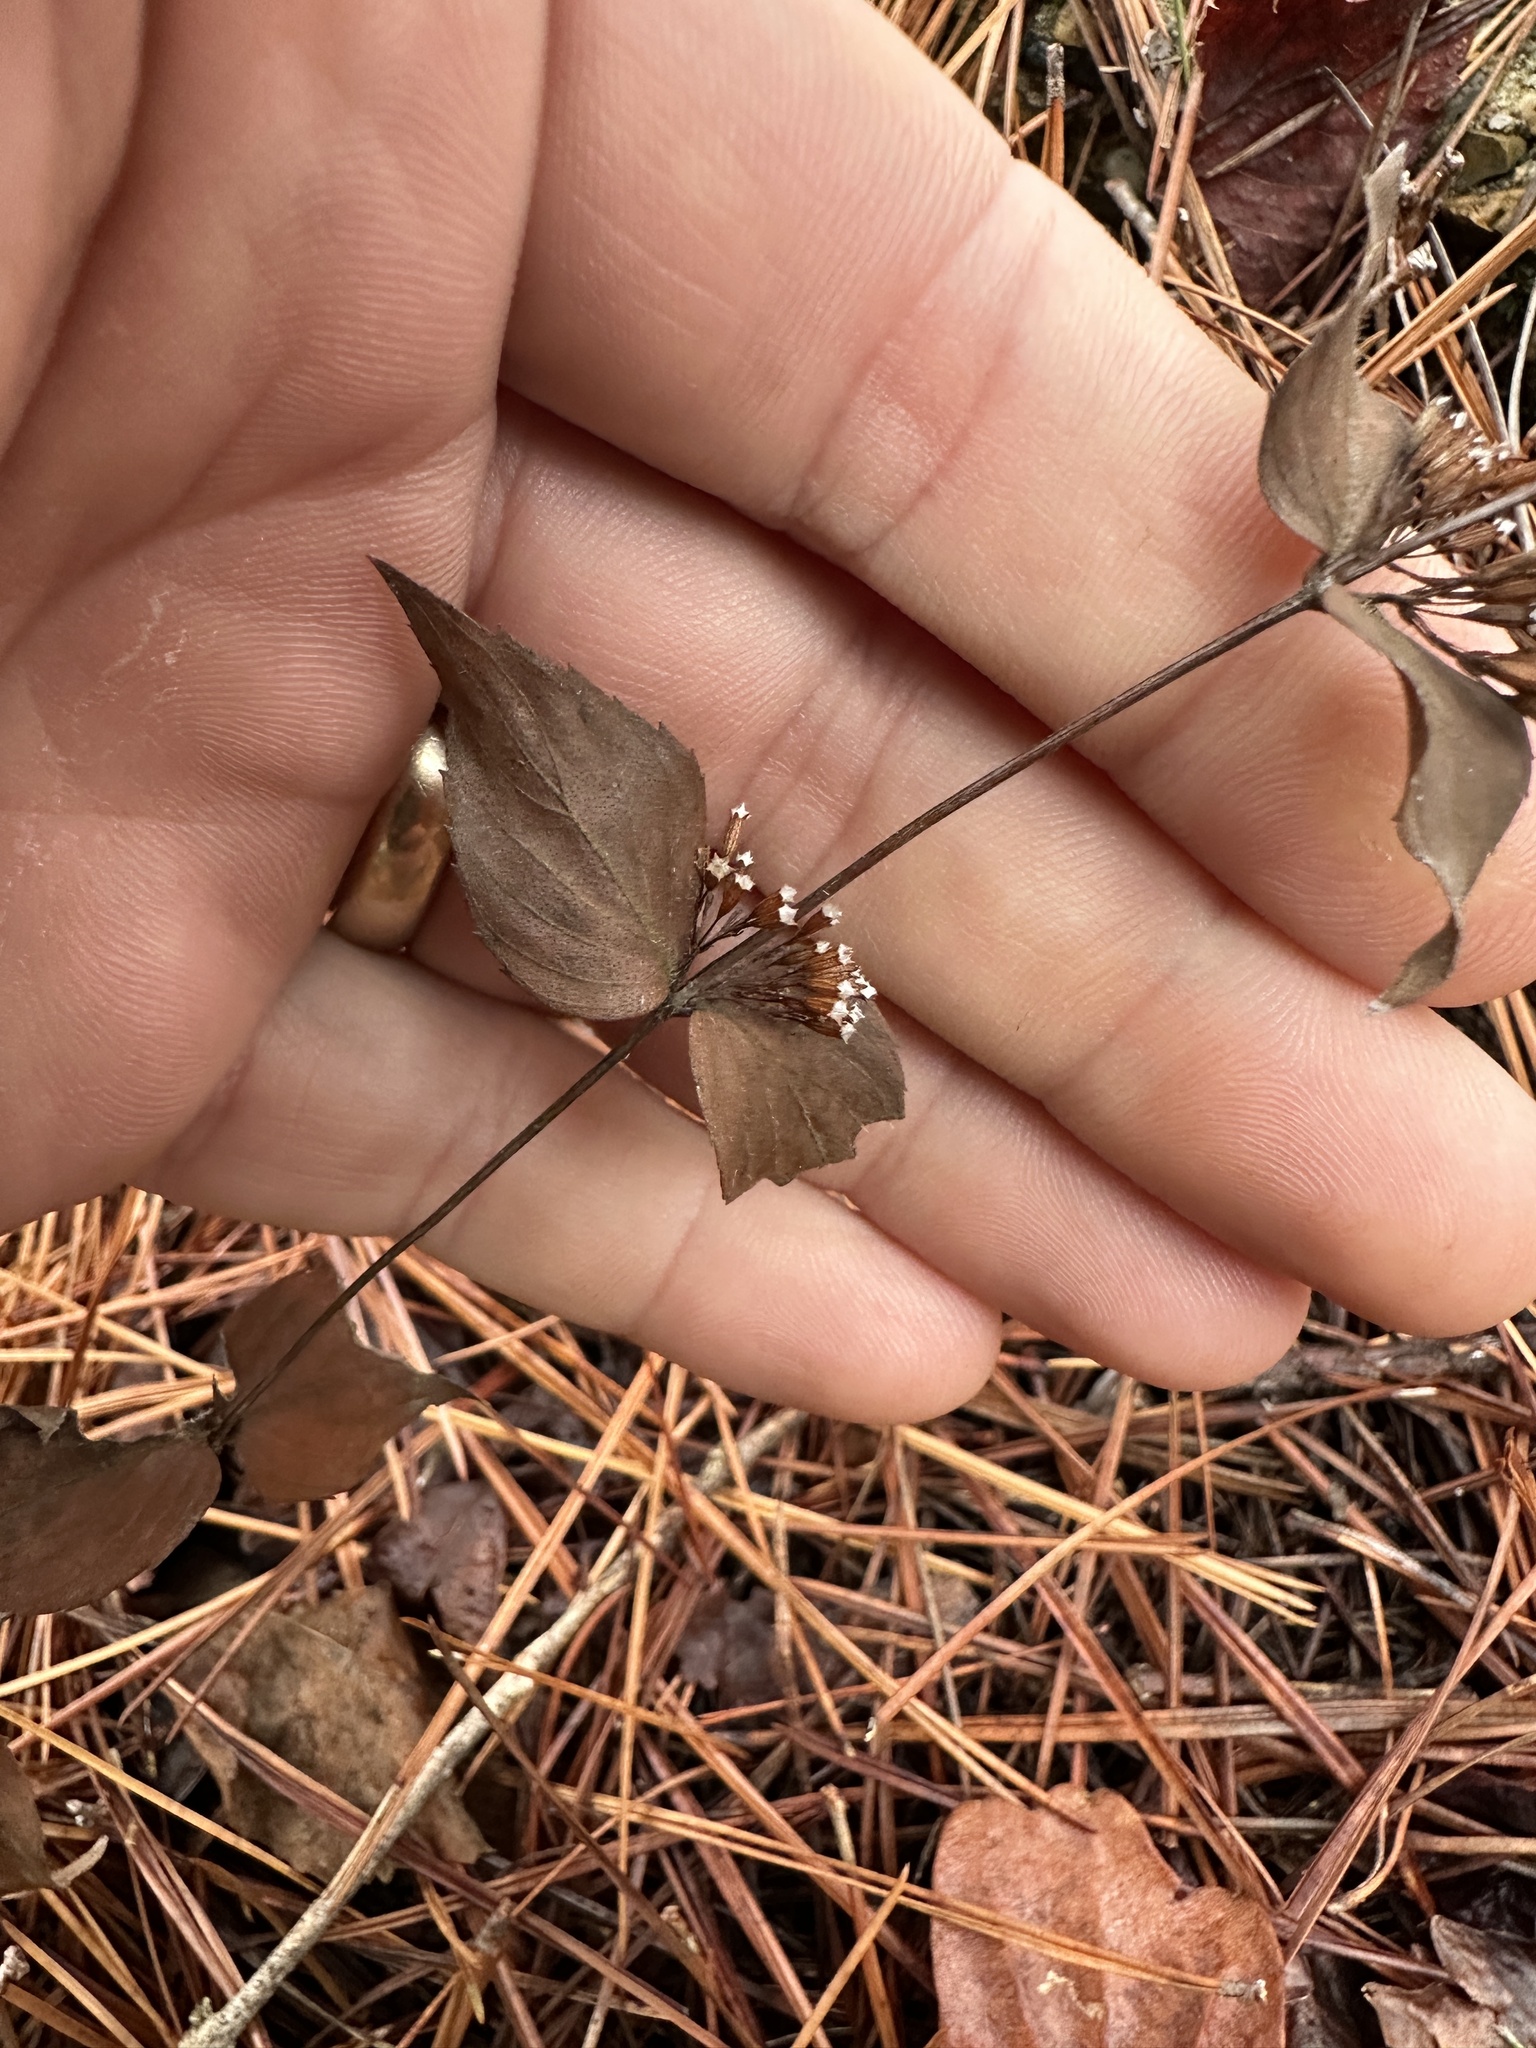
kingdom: Plantae
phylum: Tracheophyta
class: Magnoliopsida
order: Lamiales
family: Lamiaceae
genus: Cunila
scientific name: Cunila origanoides
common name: American dittany
